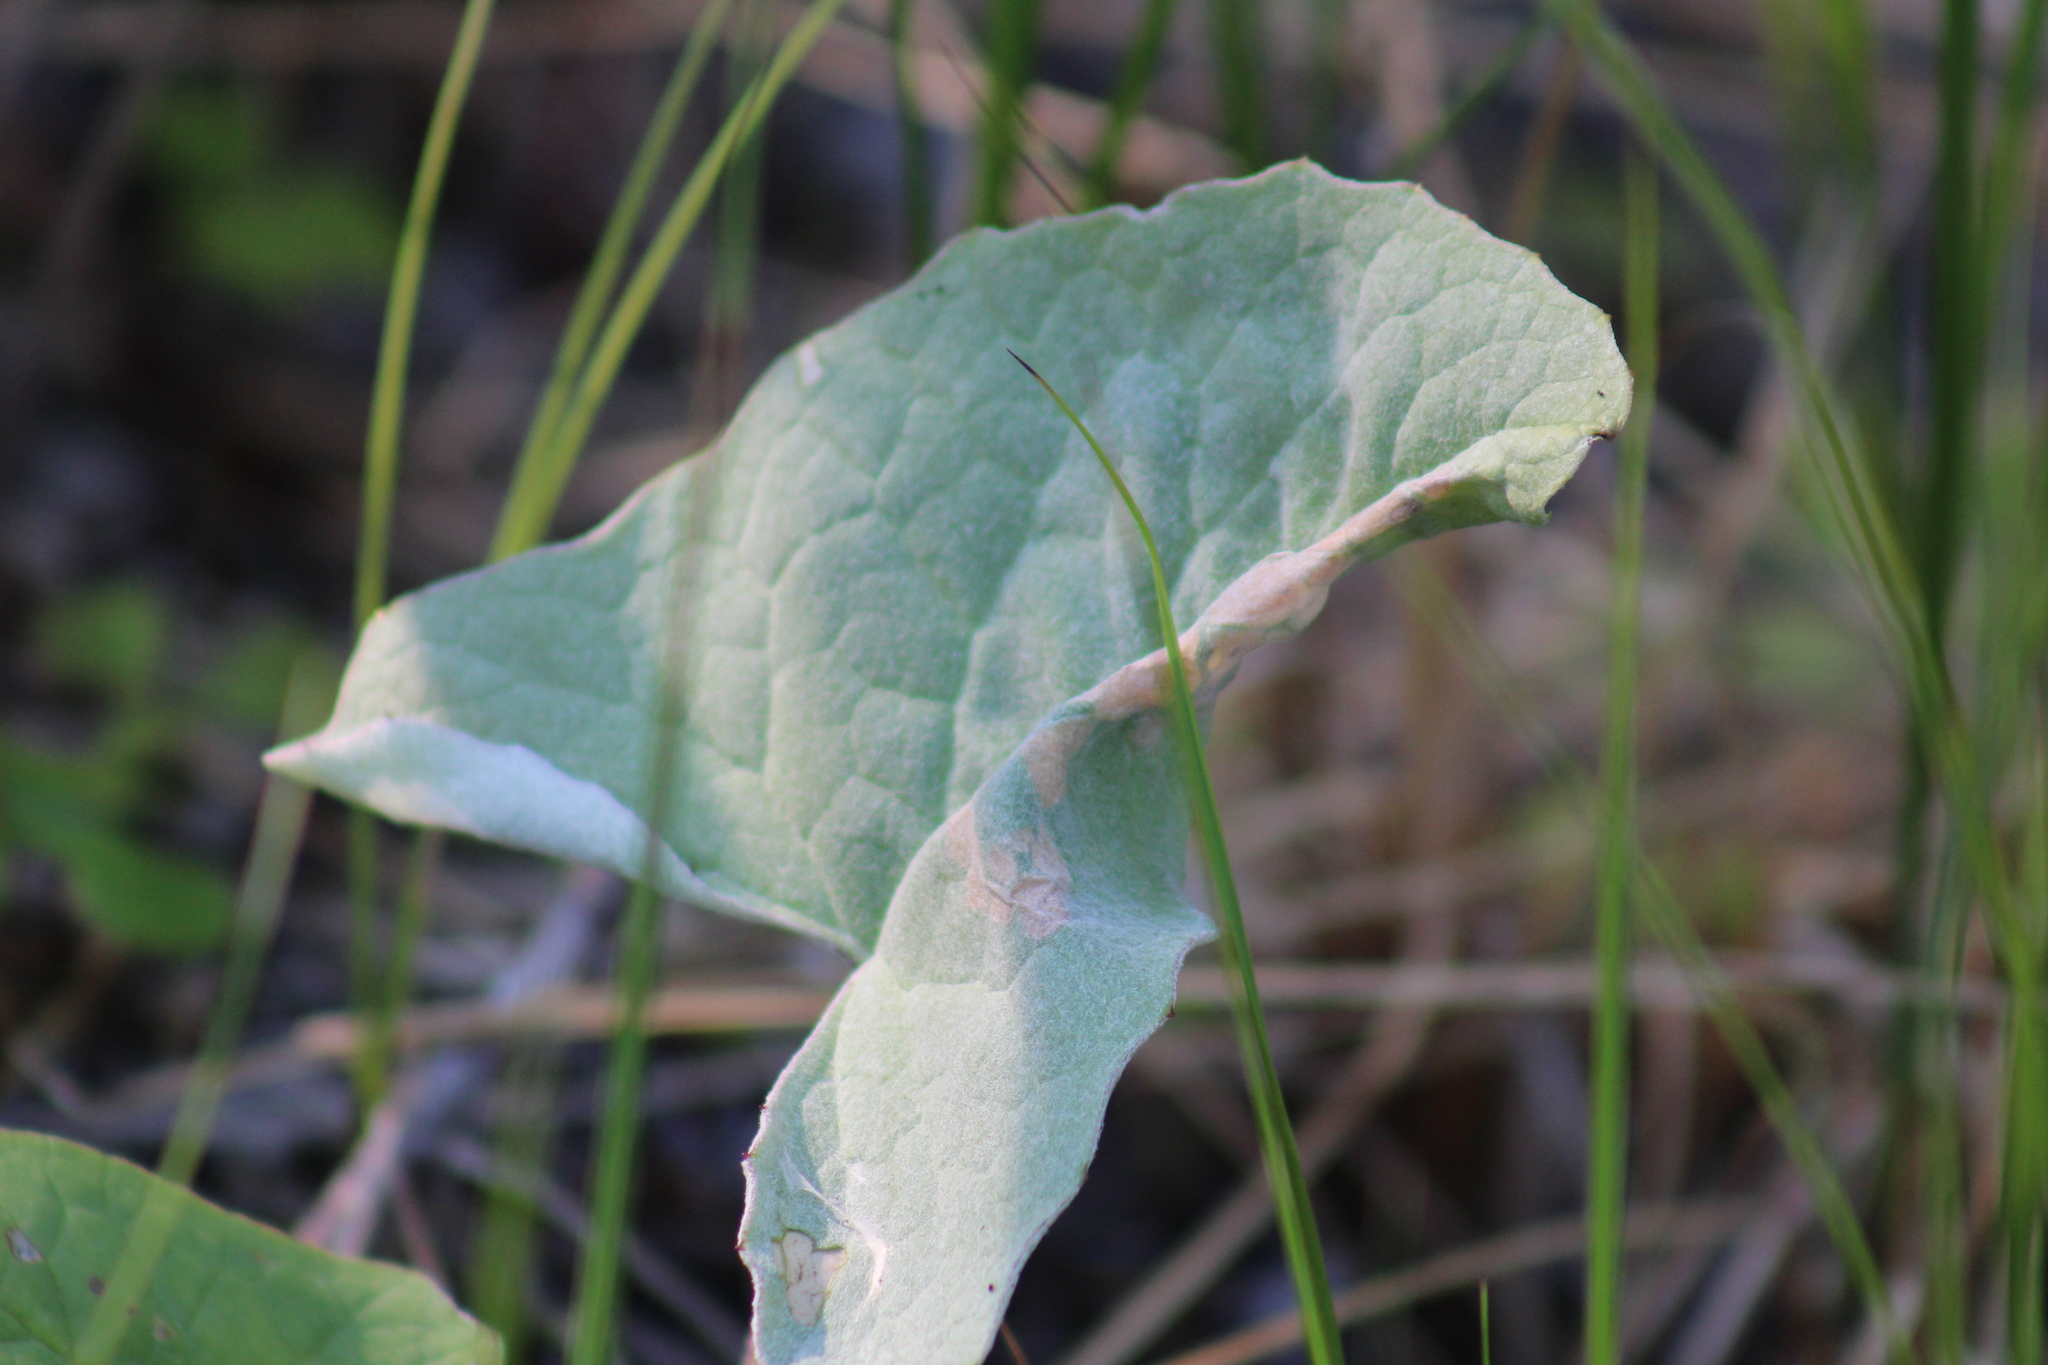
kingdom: Plantae
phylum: Tracheophyta
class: Magnoliopsida
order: Asterales
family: Asteraceae
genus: Petasites
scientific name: Petasites frigidus
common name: Arctic butterbur
